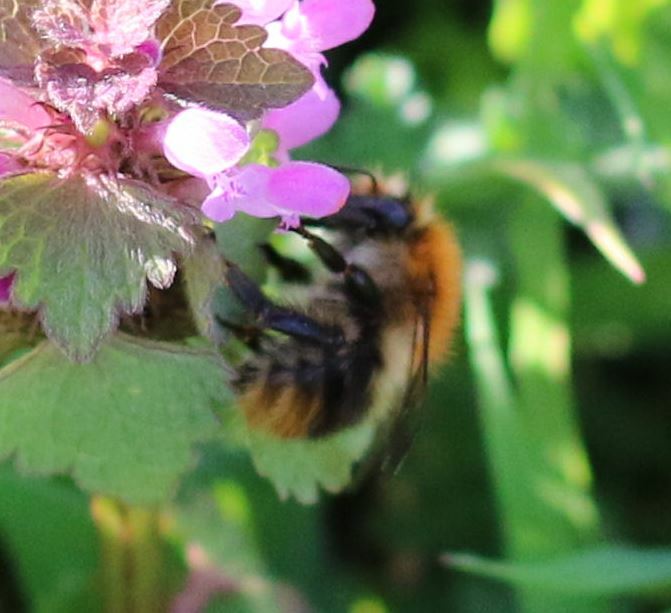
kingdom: Animalia
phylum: Arthropoda
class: Insecta
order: Hymenoptera
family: Apidae
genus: Bombus
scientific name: Bombus pascuorum
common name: Common carder bee
